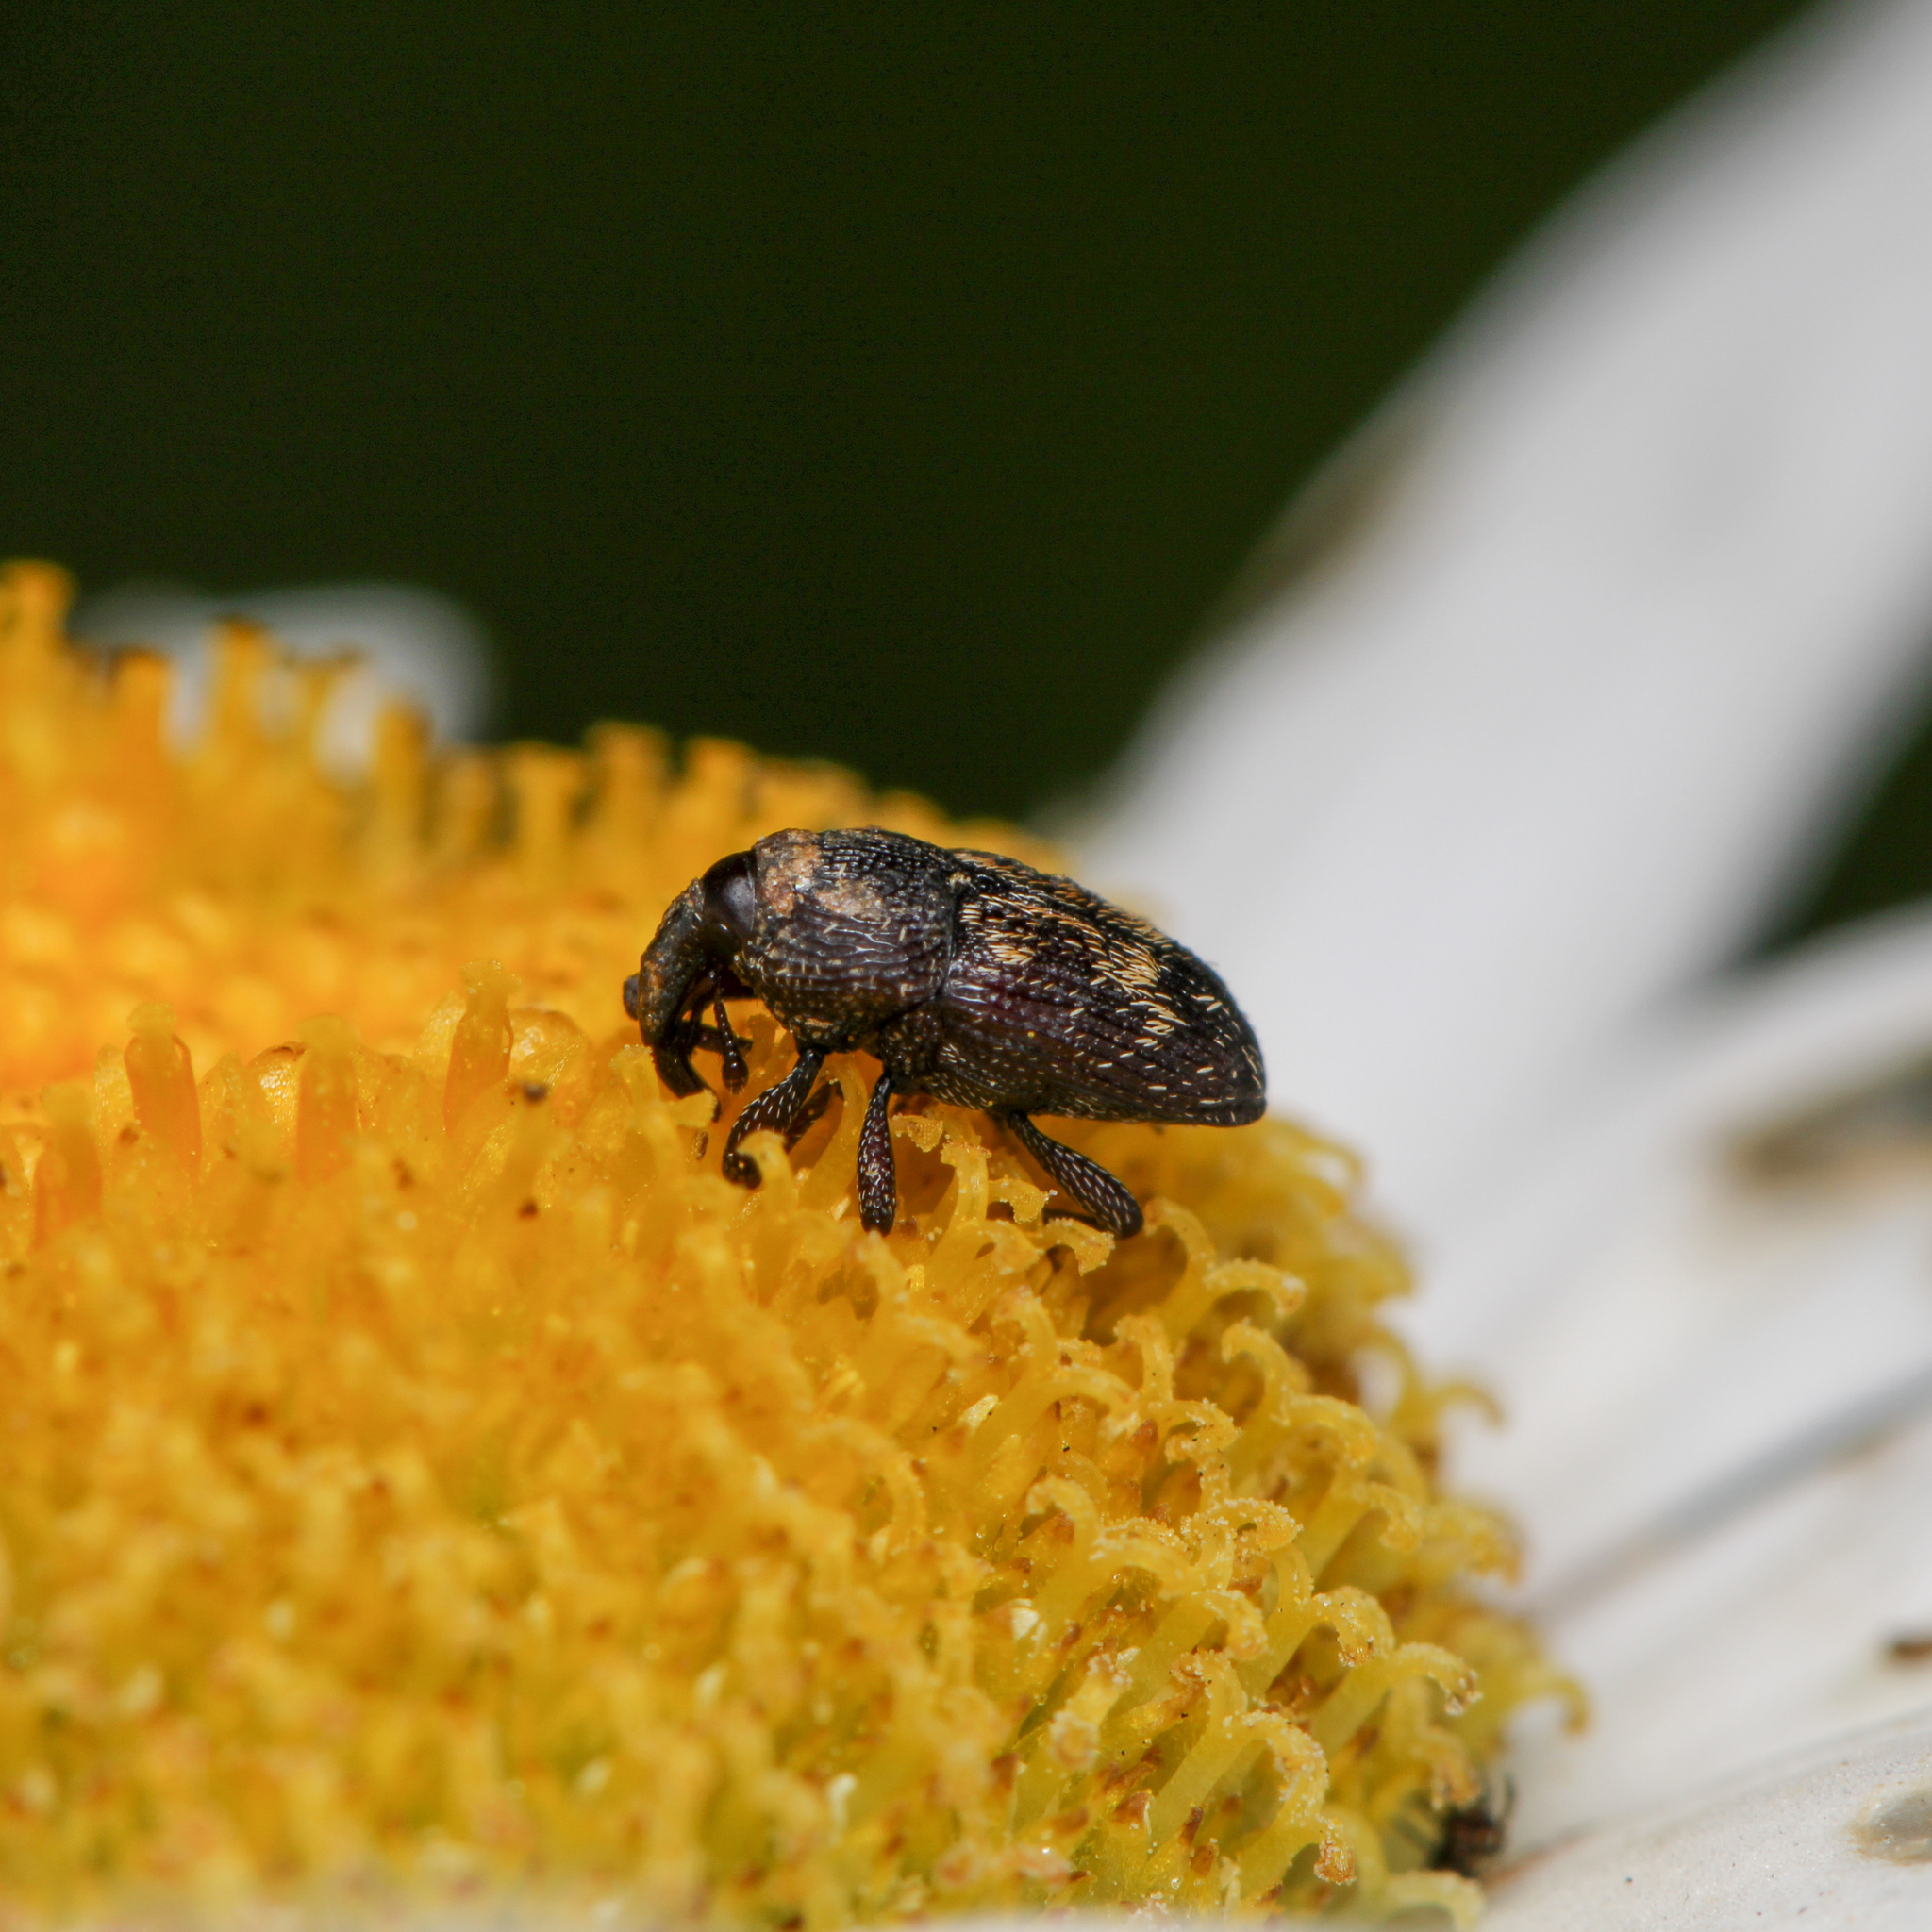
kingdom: Animalia
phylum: Arthropoda
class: Insecta
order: Coleoptera
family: Curculionidae
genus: Glyptobaris
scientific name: Glyptobaris lecontei
